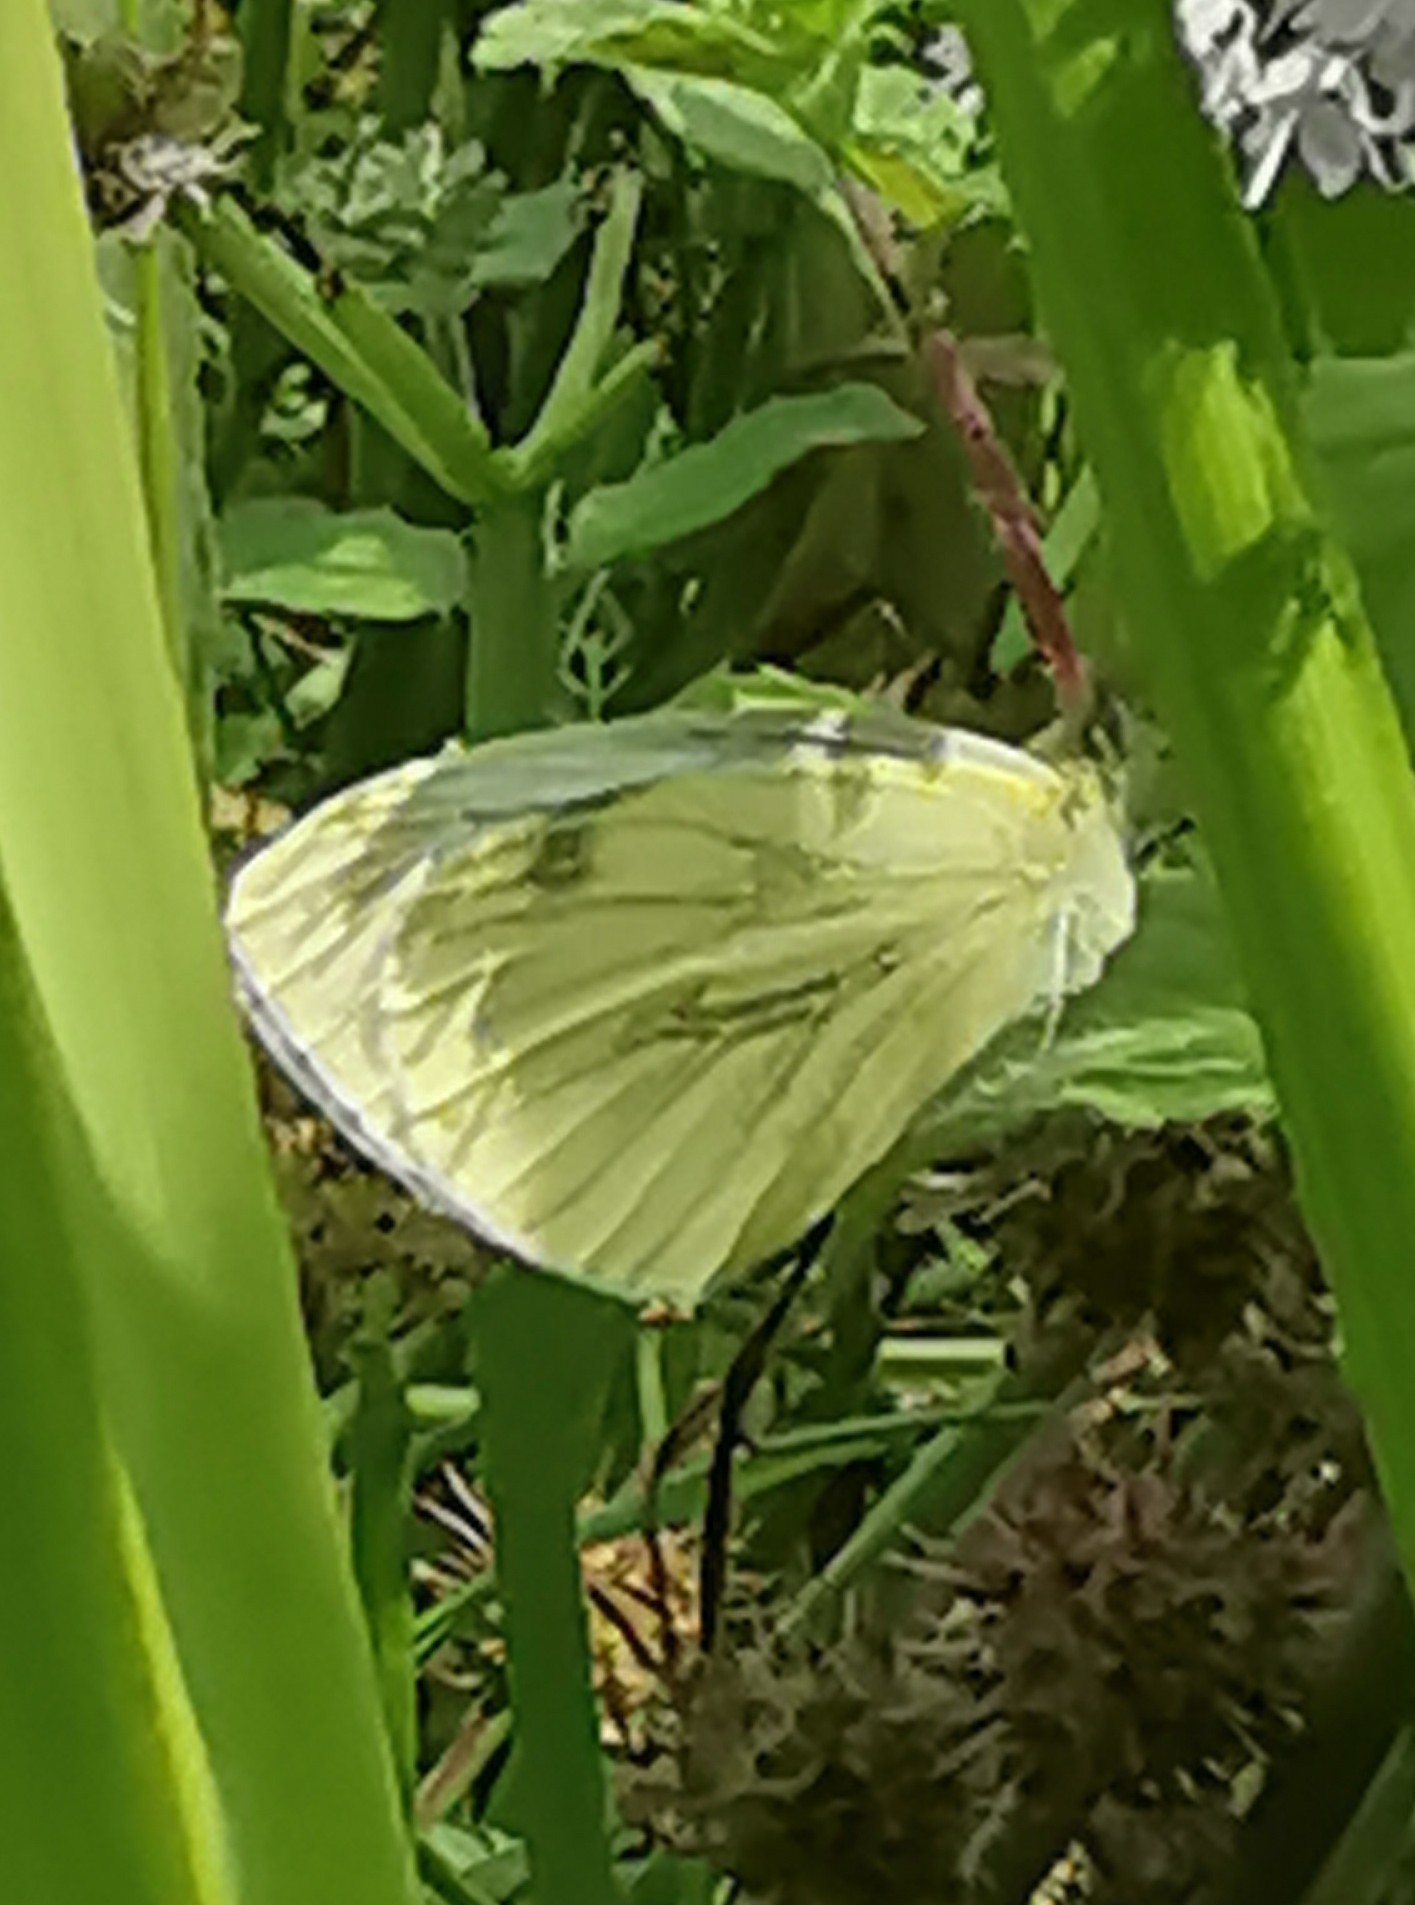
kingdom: Animalia
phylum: Arthropoda
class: Insecta
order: Lepidoptera
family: Pieridae
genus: Pieris
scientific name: Pieris napi
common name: Green-veined white
